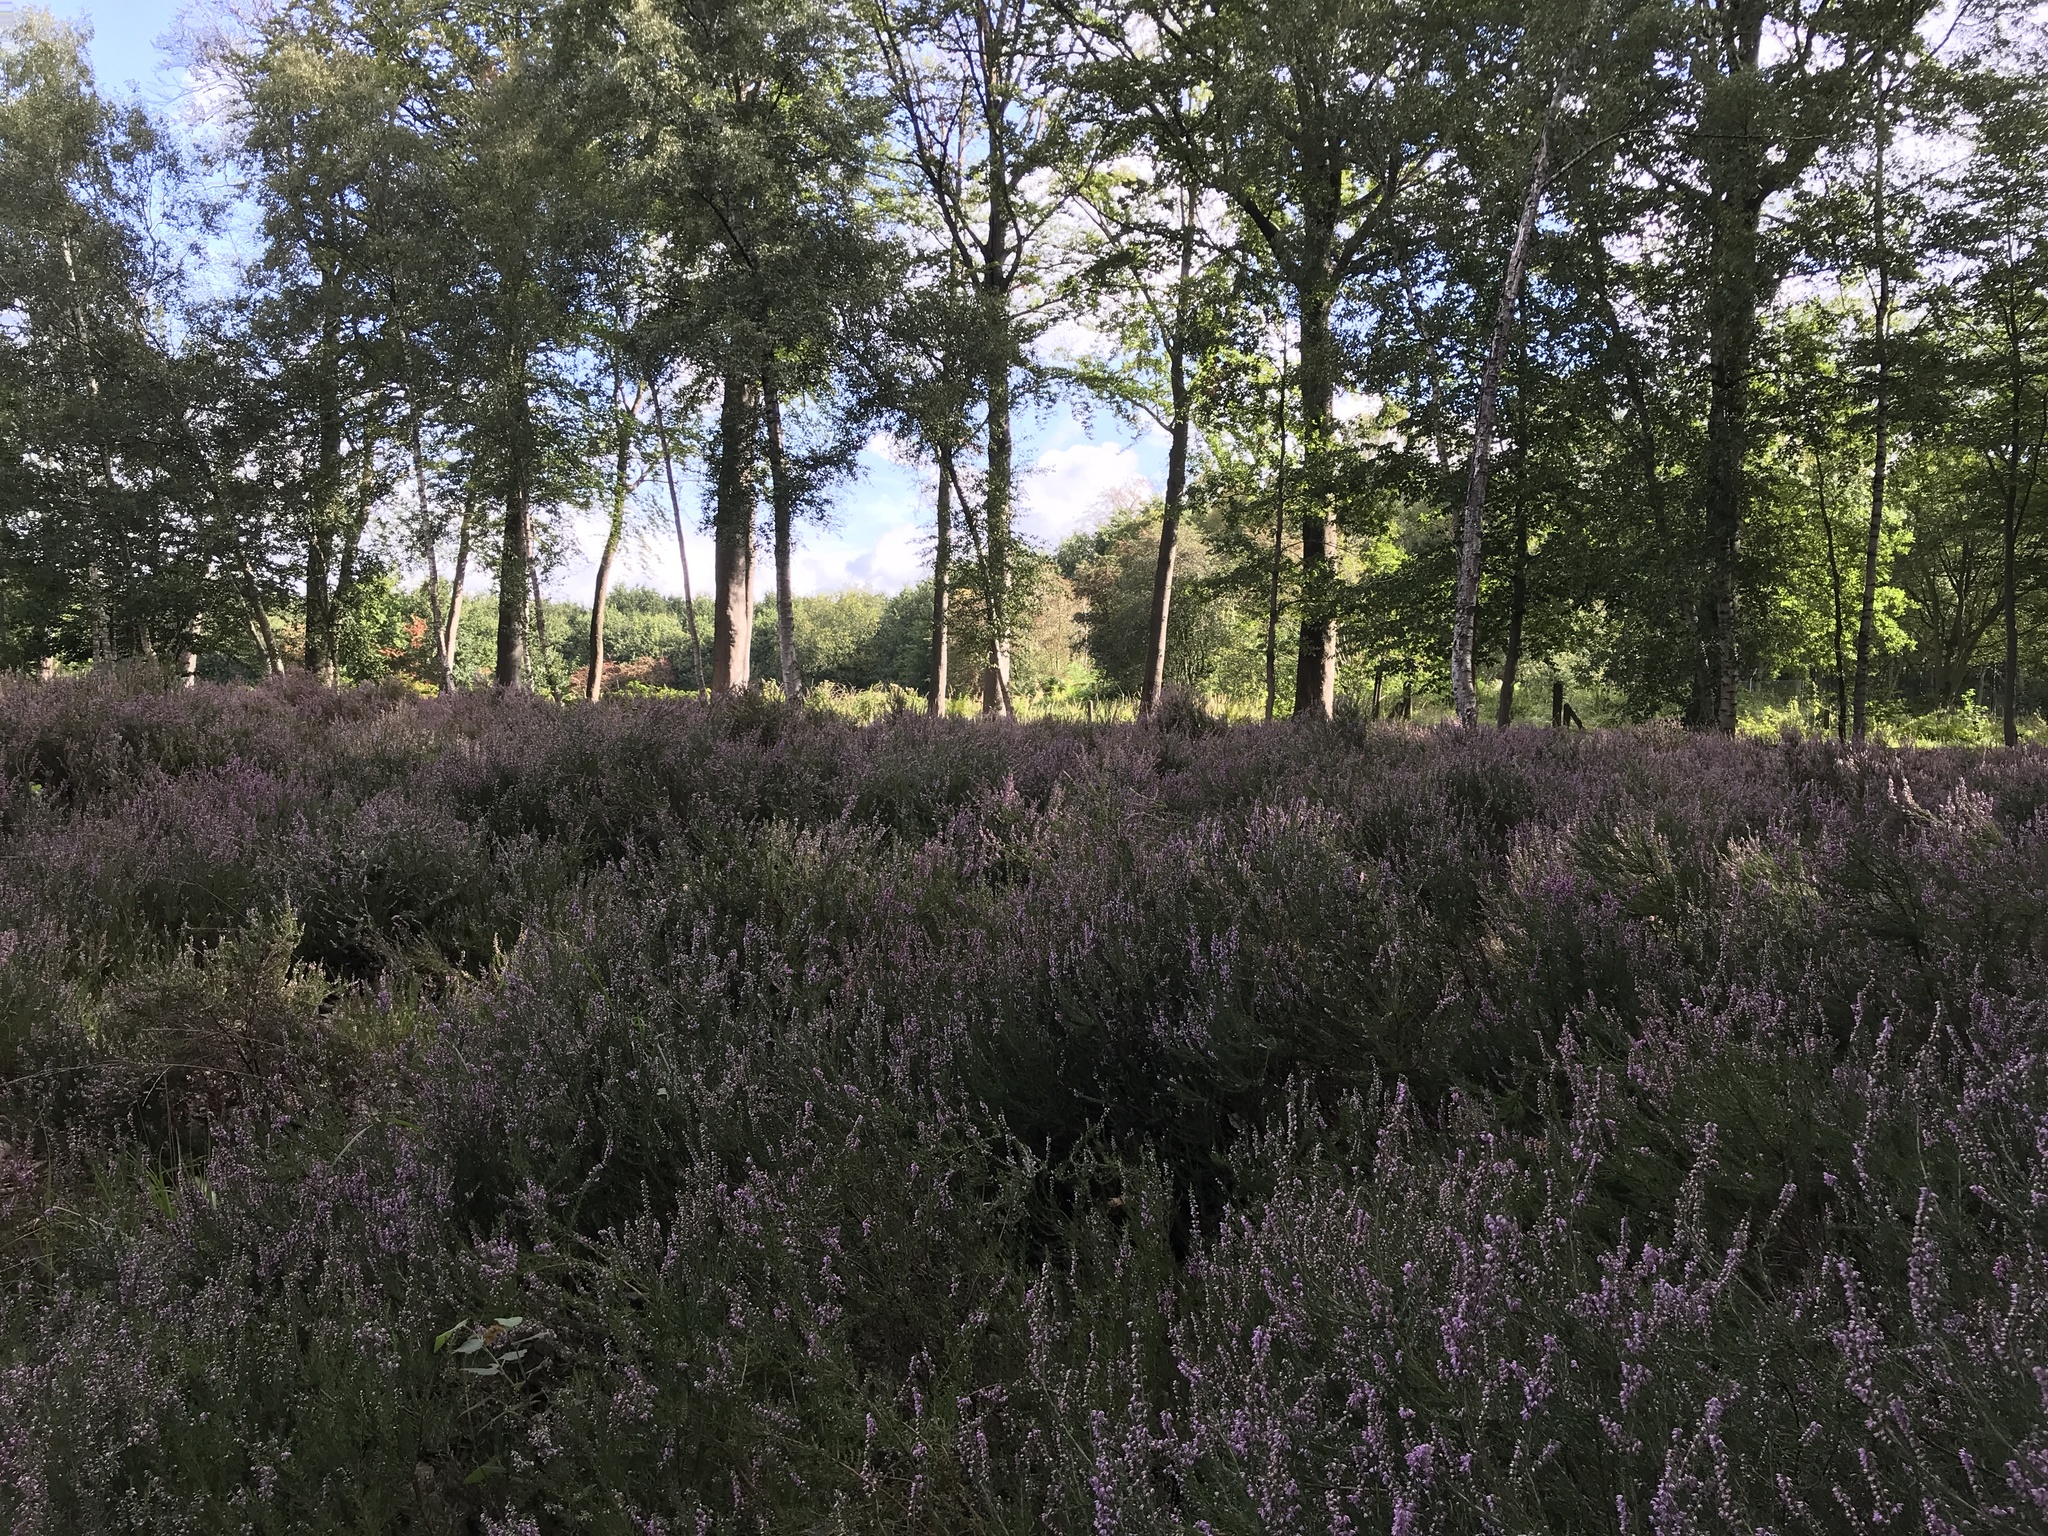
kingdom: Plantae
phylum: Tracheophyta
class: Magnoliopsida
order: Ericales
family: Ericaceae
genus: Calluna
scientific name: Calluna vulgaris
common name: Heather
